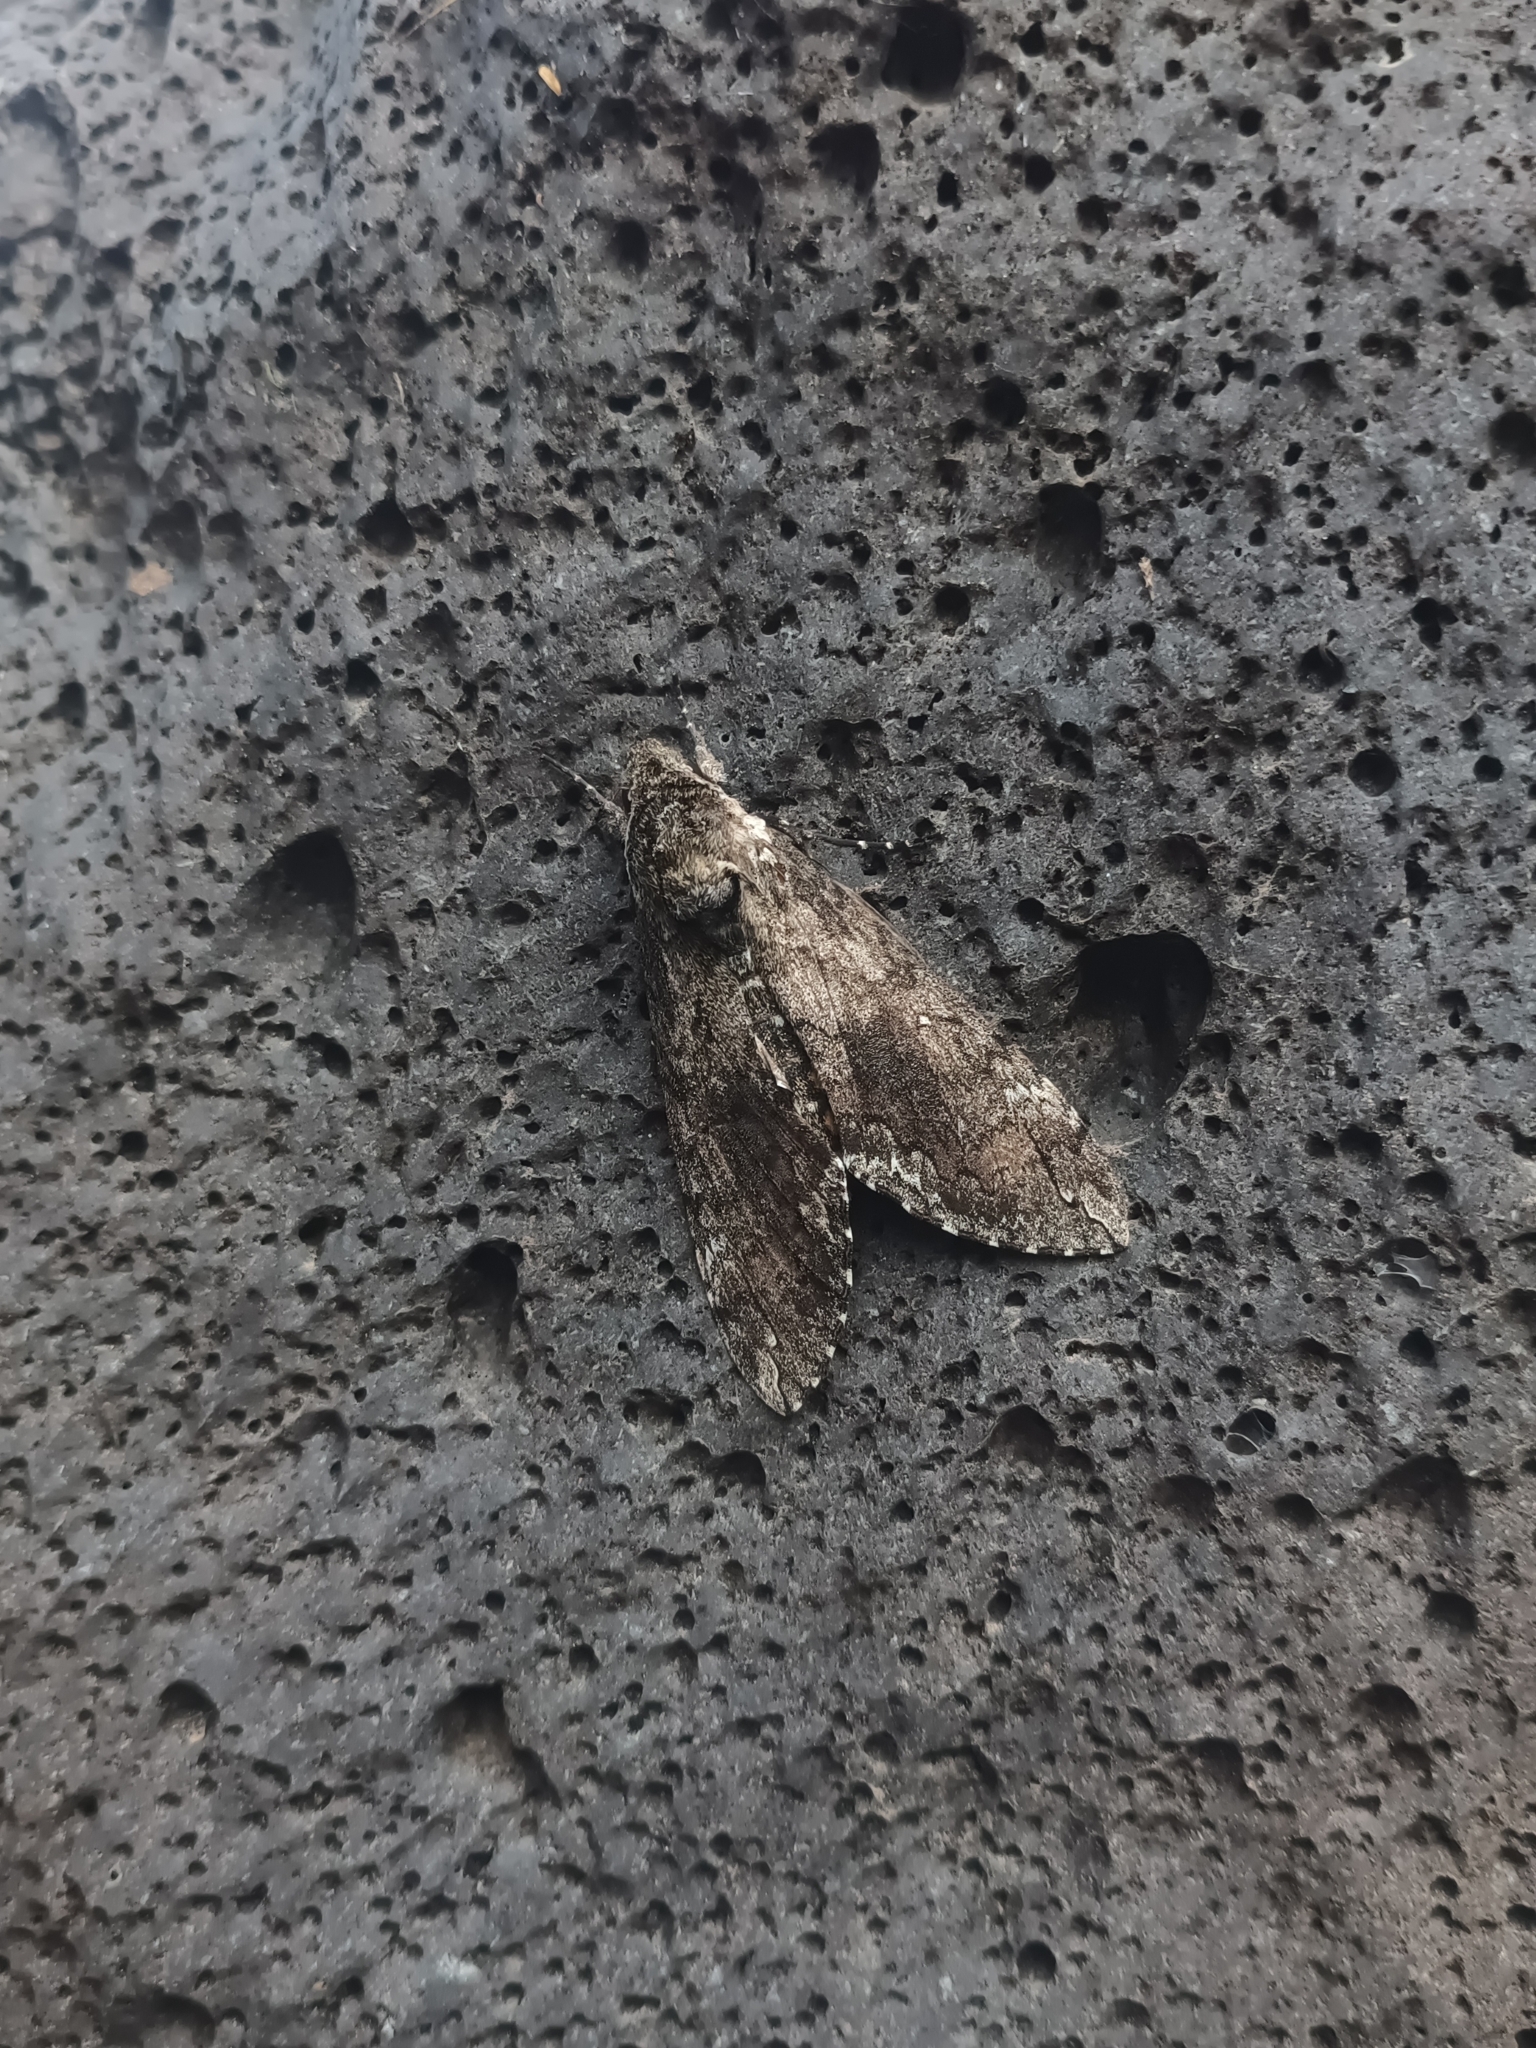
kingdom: Animalia
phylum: Arthropoda
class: Insecta
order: Lepidoptera
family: Sphingidae
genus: Manduca
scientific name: Manduca sexta
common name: Carolina sphinx
